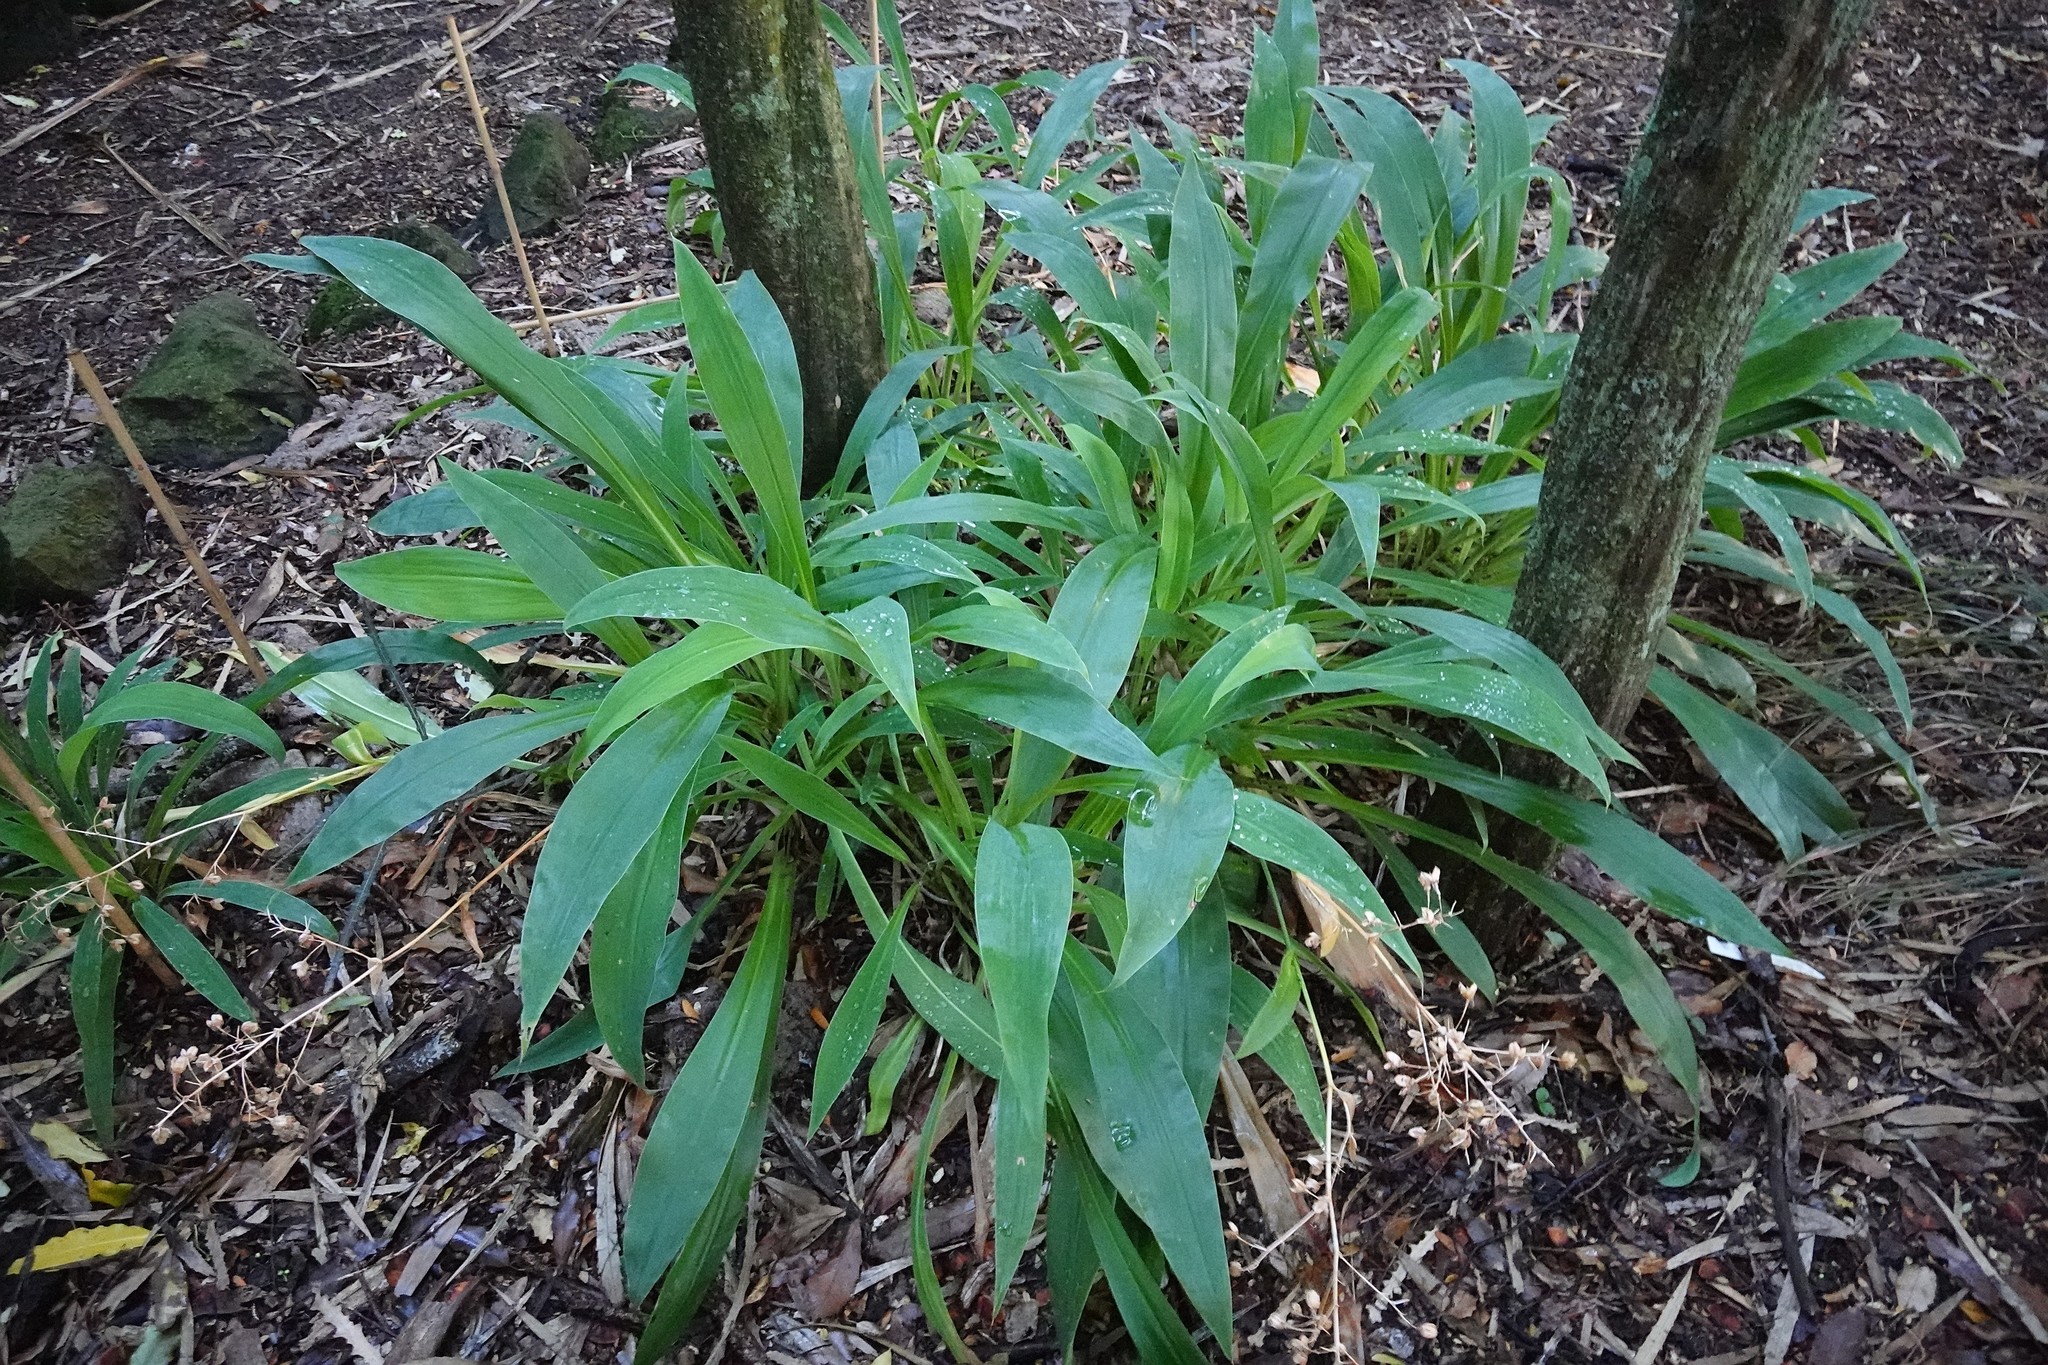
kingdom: Plantae
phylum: Tracheophyta
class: Liliopsida
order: Asparagales
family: Asparagaceae
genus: Arthropodium
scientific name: Arthropodium cirratum
